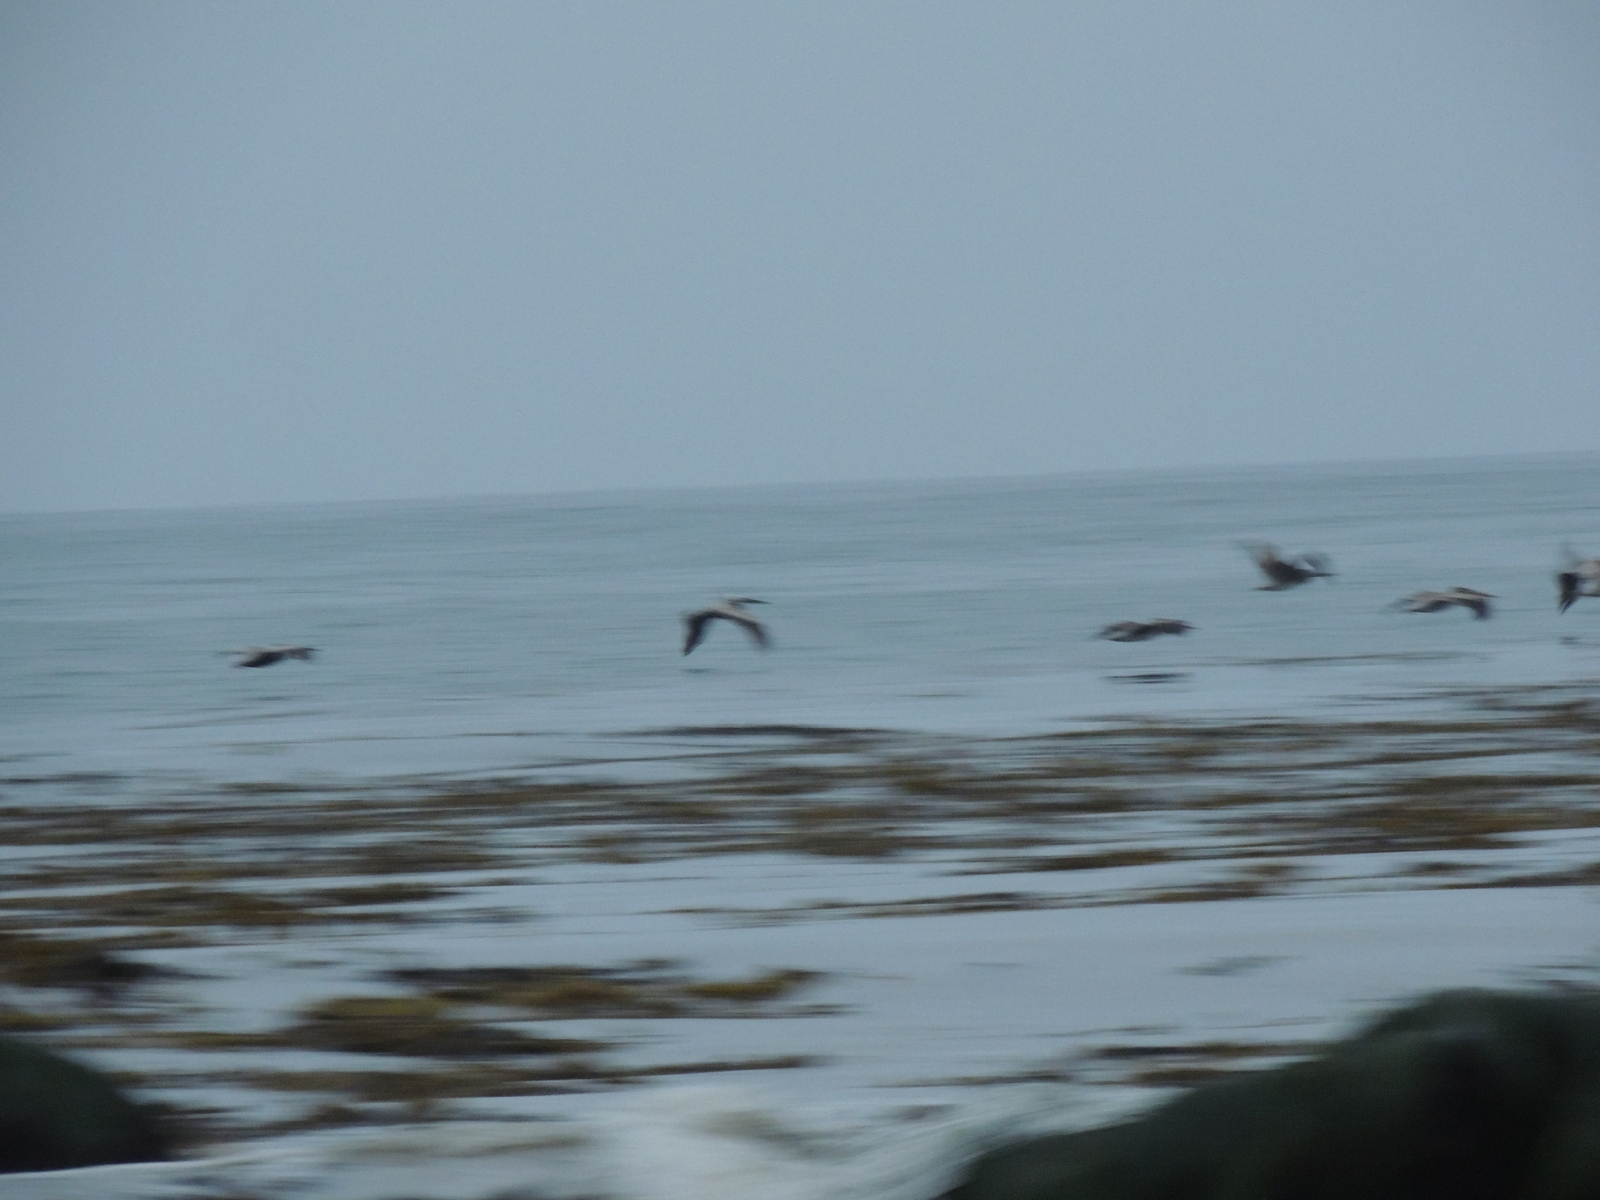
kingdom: Animalia
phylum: Chordata
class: Aves
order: Pelecaniformes
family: Pelecanidae
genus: Pelecanus
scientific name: Pelecanus occidentalis
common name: Brown pelican
